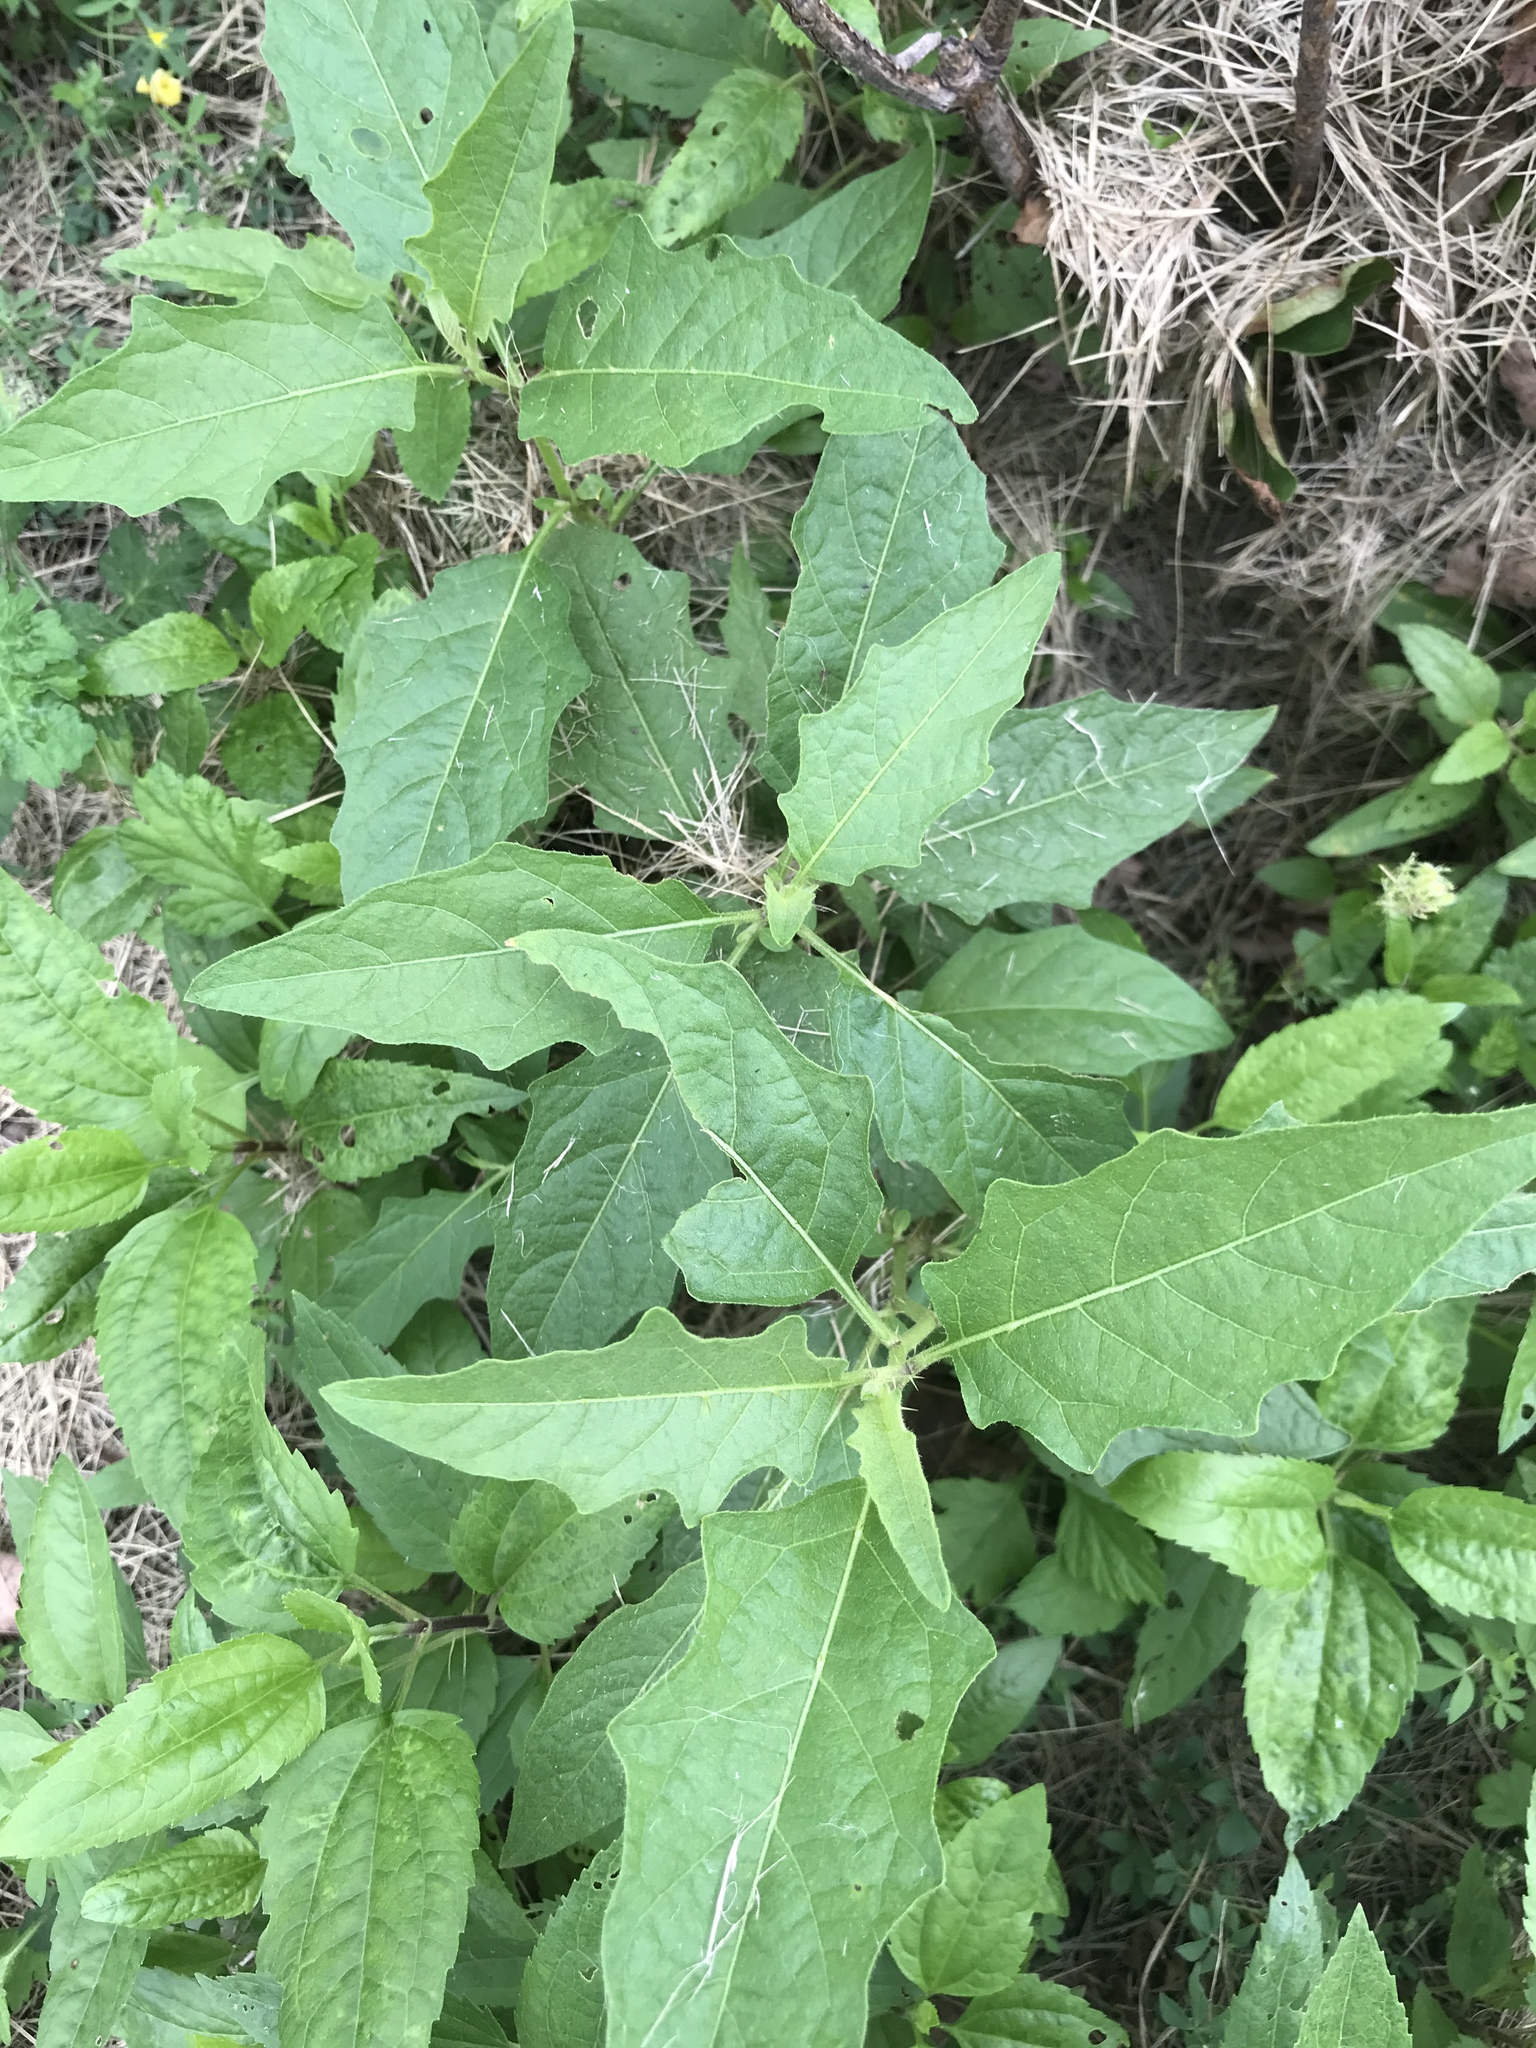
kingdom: Plantae
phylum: Tracheophyta
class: Magnoliopsida
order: Solanales
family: Solanaceae
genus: Solanum
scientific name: Solanum carolinense
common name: Horse-nettle
